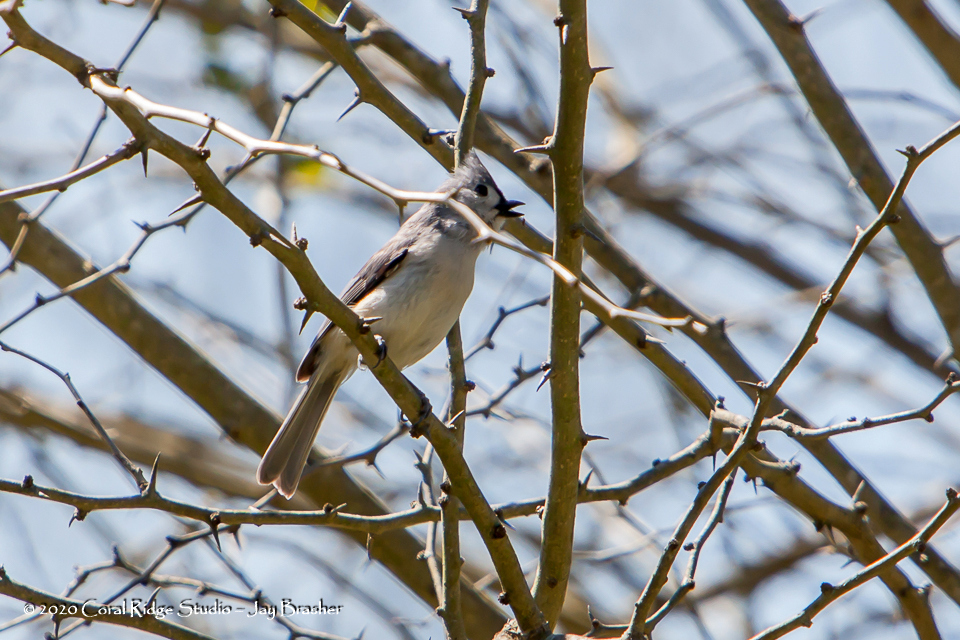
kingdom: Animalia
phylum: Chordata
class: Aves
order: Passeriformes
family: Paridae
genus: Baeolophus
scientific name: Baeolophus bicolor
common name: Tufted titmouse
